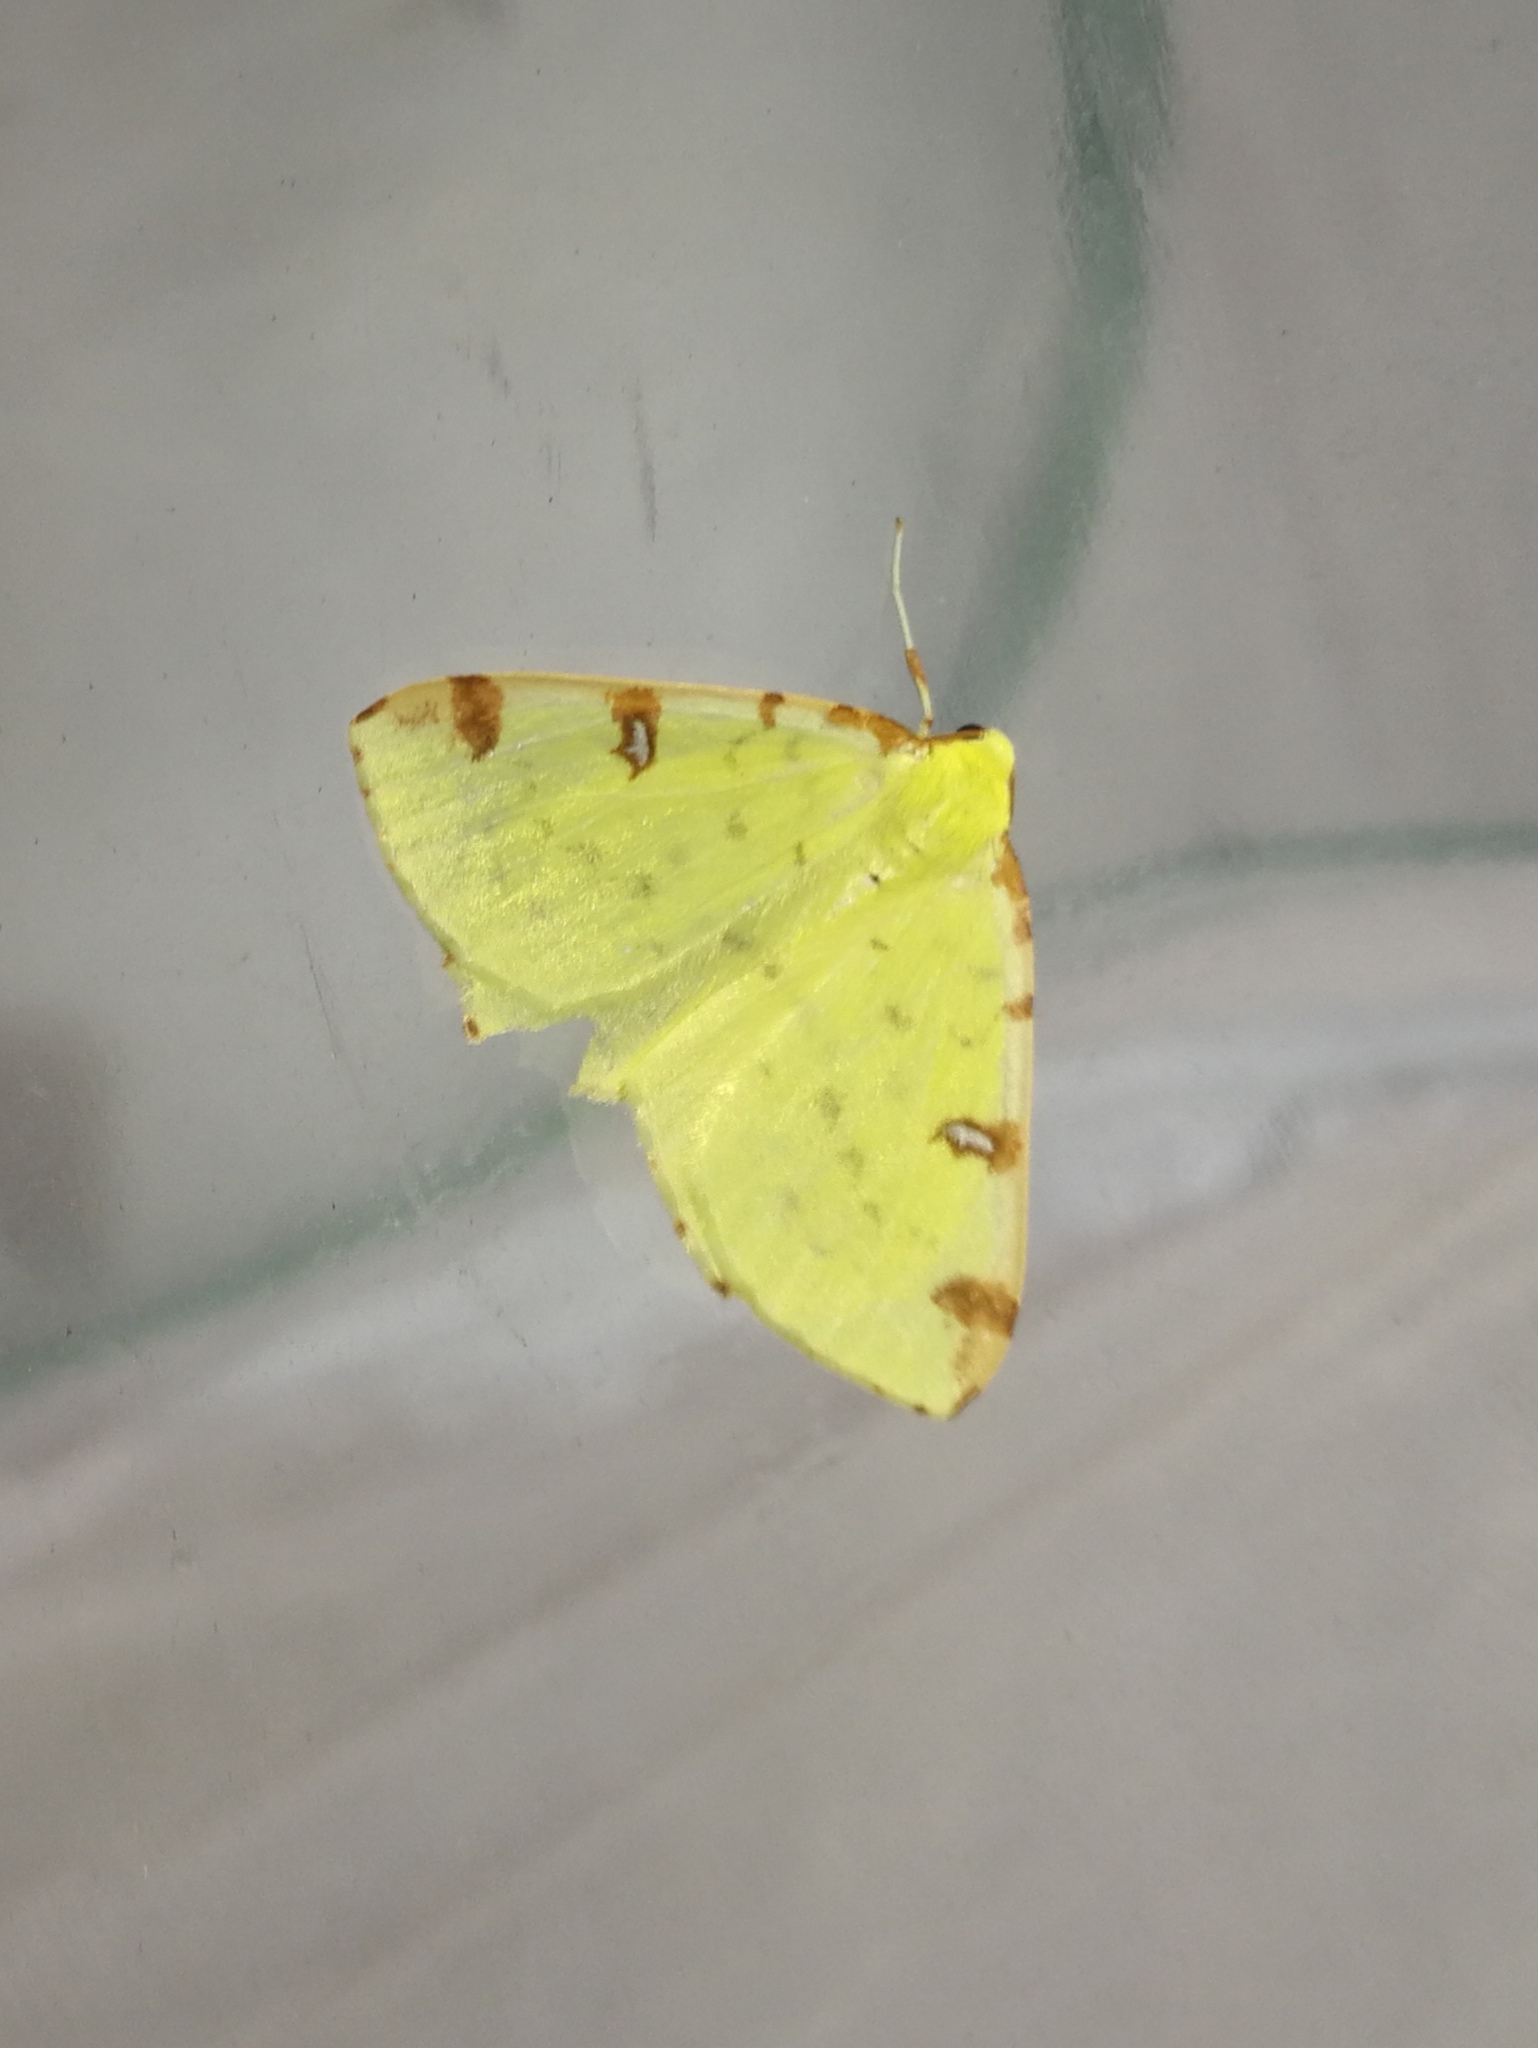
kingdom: Animalia
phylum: Arthropoda
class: Insecta
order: Lepidoptera
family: Geometridae
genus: Opisthograptis
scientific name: Opisthograptis luteolata
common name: Brimstone moth
